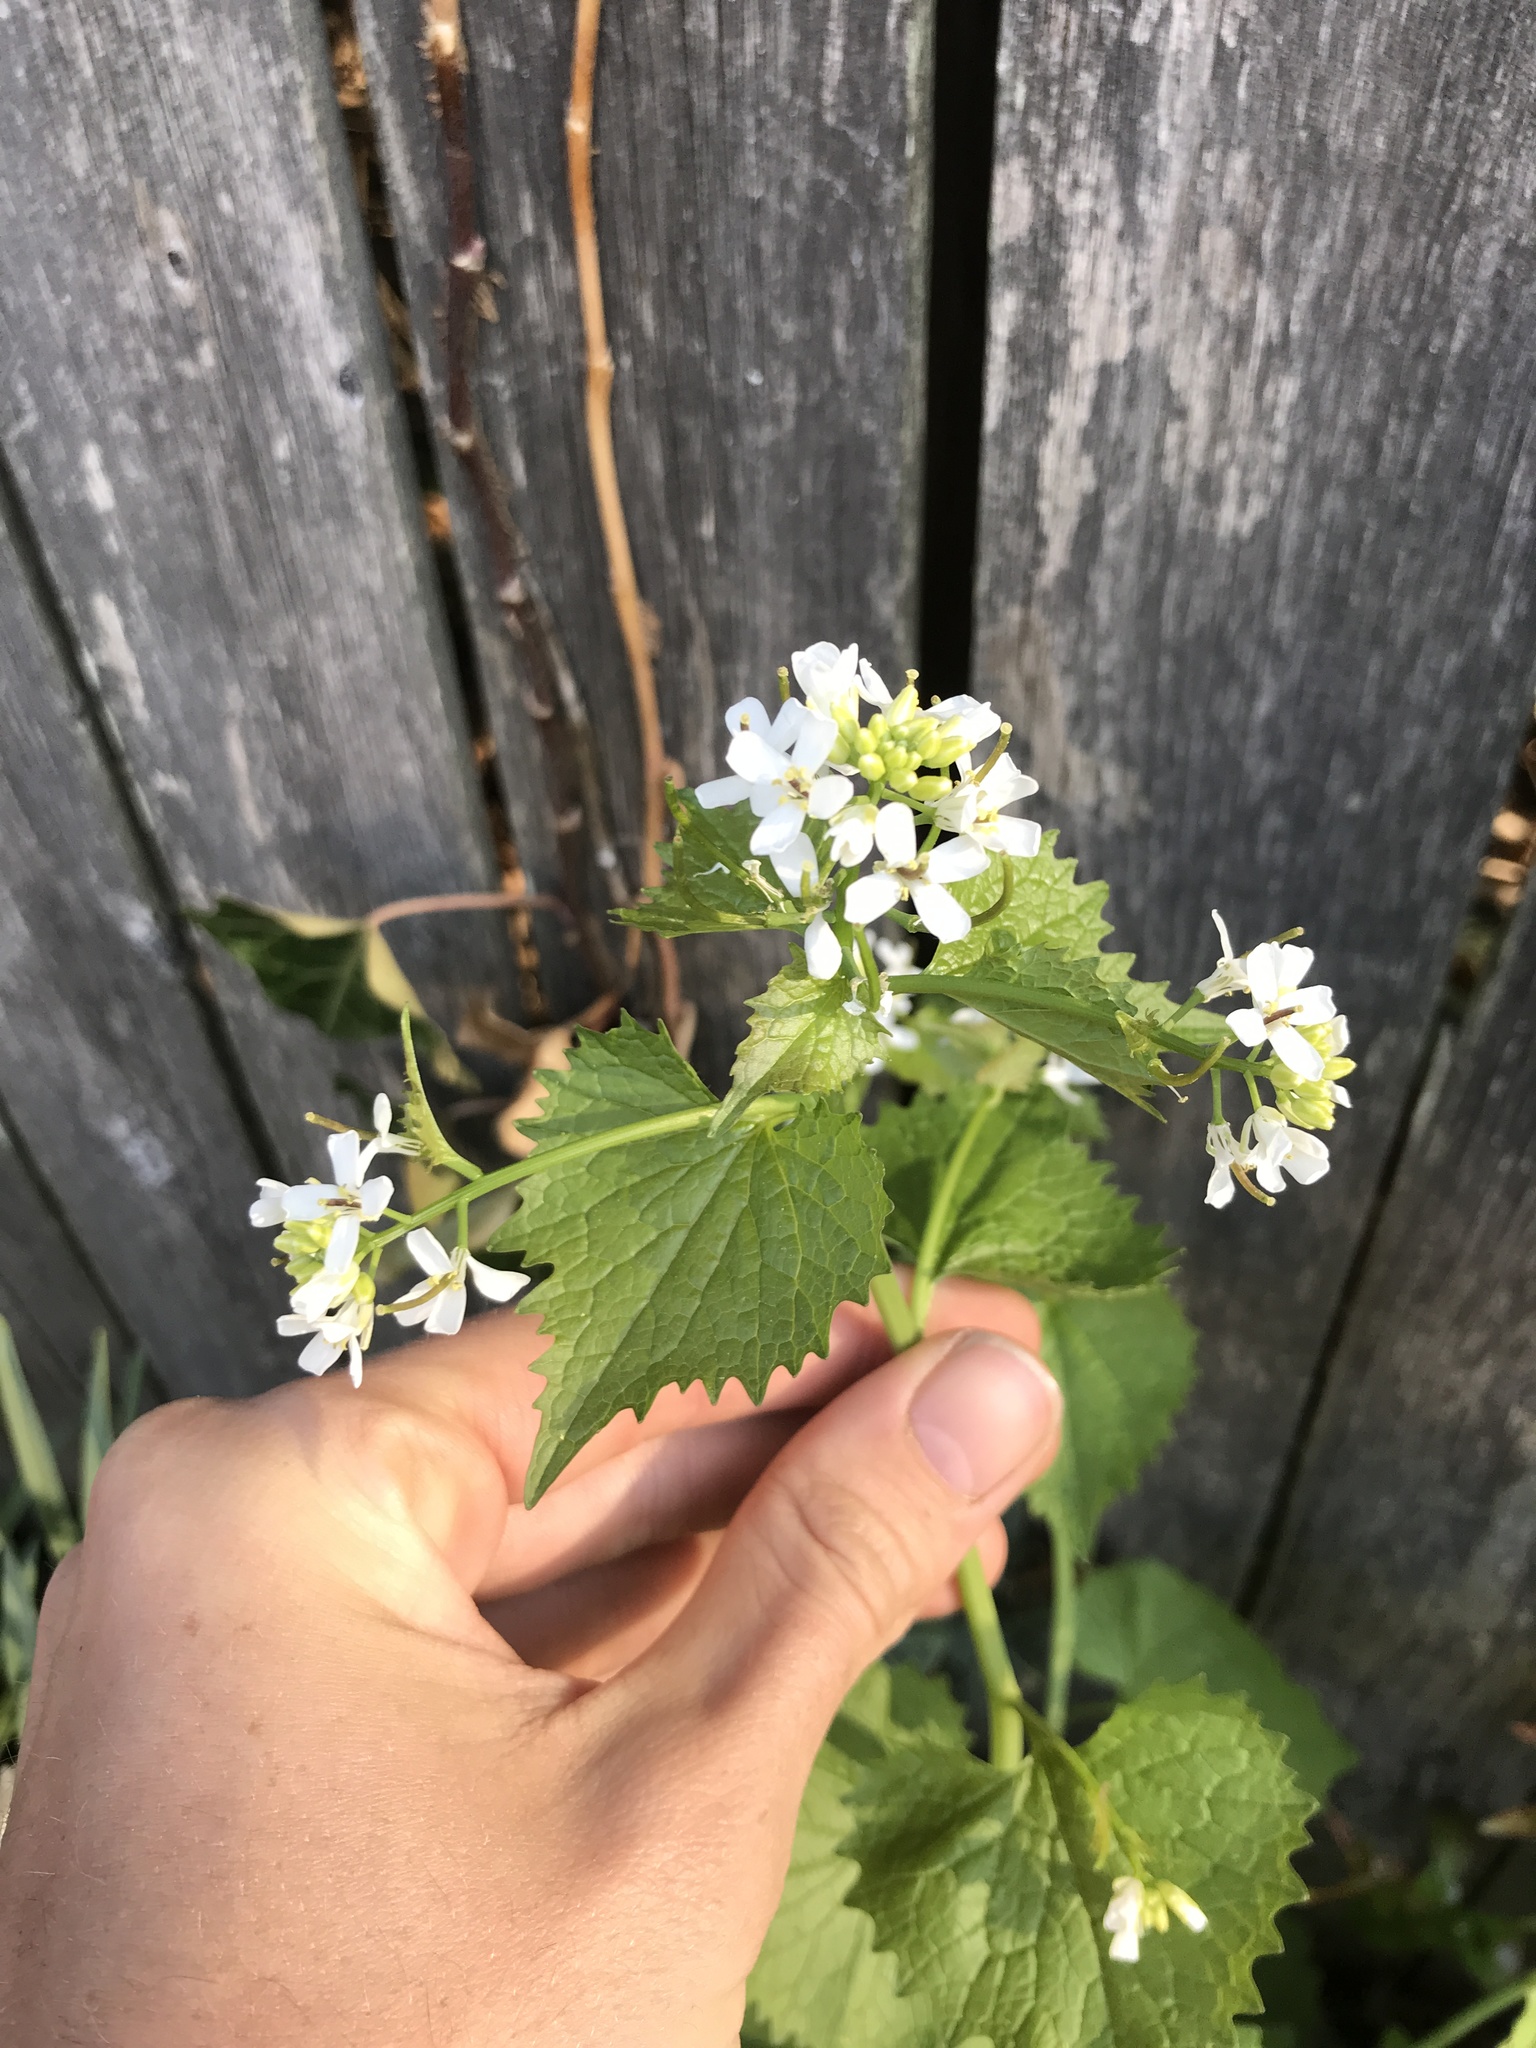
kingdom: Plantae
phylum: Tracheophyta
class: Magnoliopsida
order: Brassicales
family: Brassicaceae
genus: Alliaria
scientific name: Alliaria petiolata
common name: Garlic mustard
